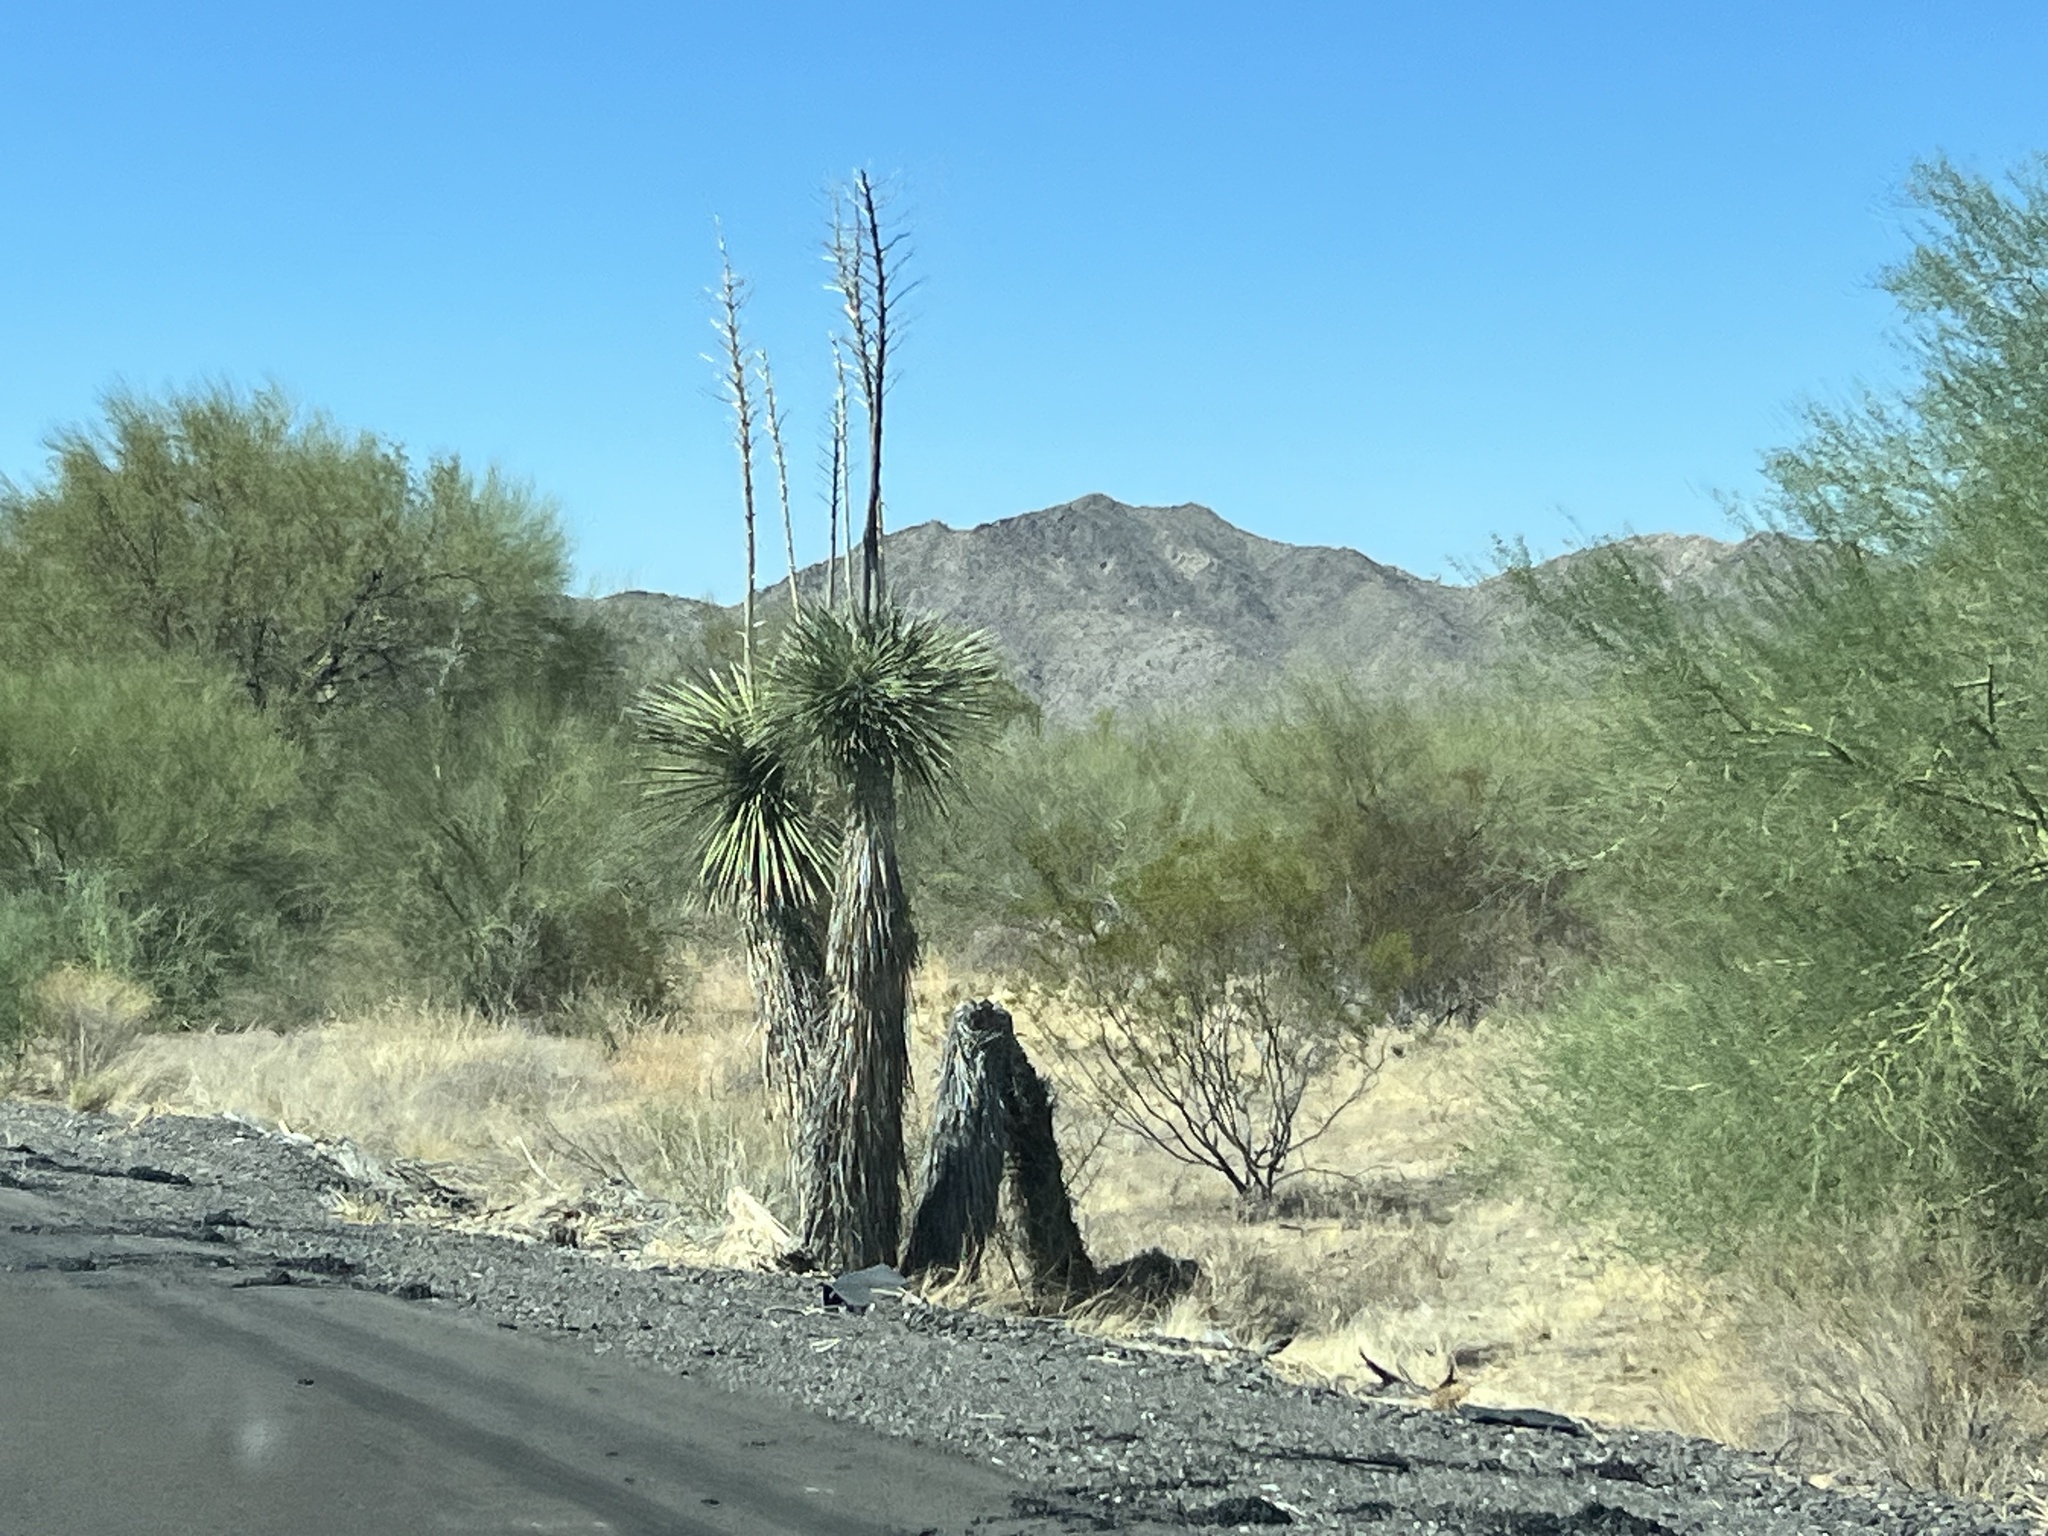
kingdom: Plantae
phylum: Tracheophyta
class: Liliopsida
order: Asparagales
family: Asparagaceae
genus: Yucca
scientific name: Yucca elata
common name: Palmella
